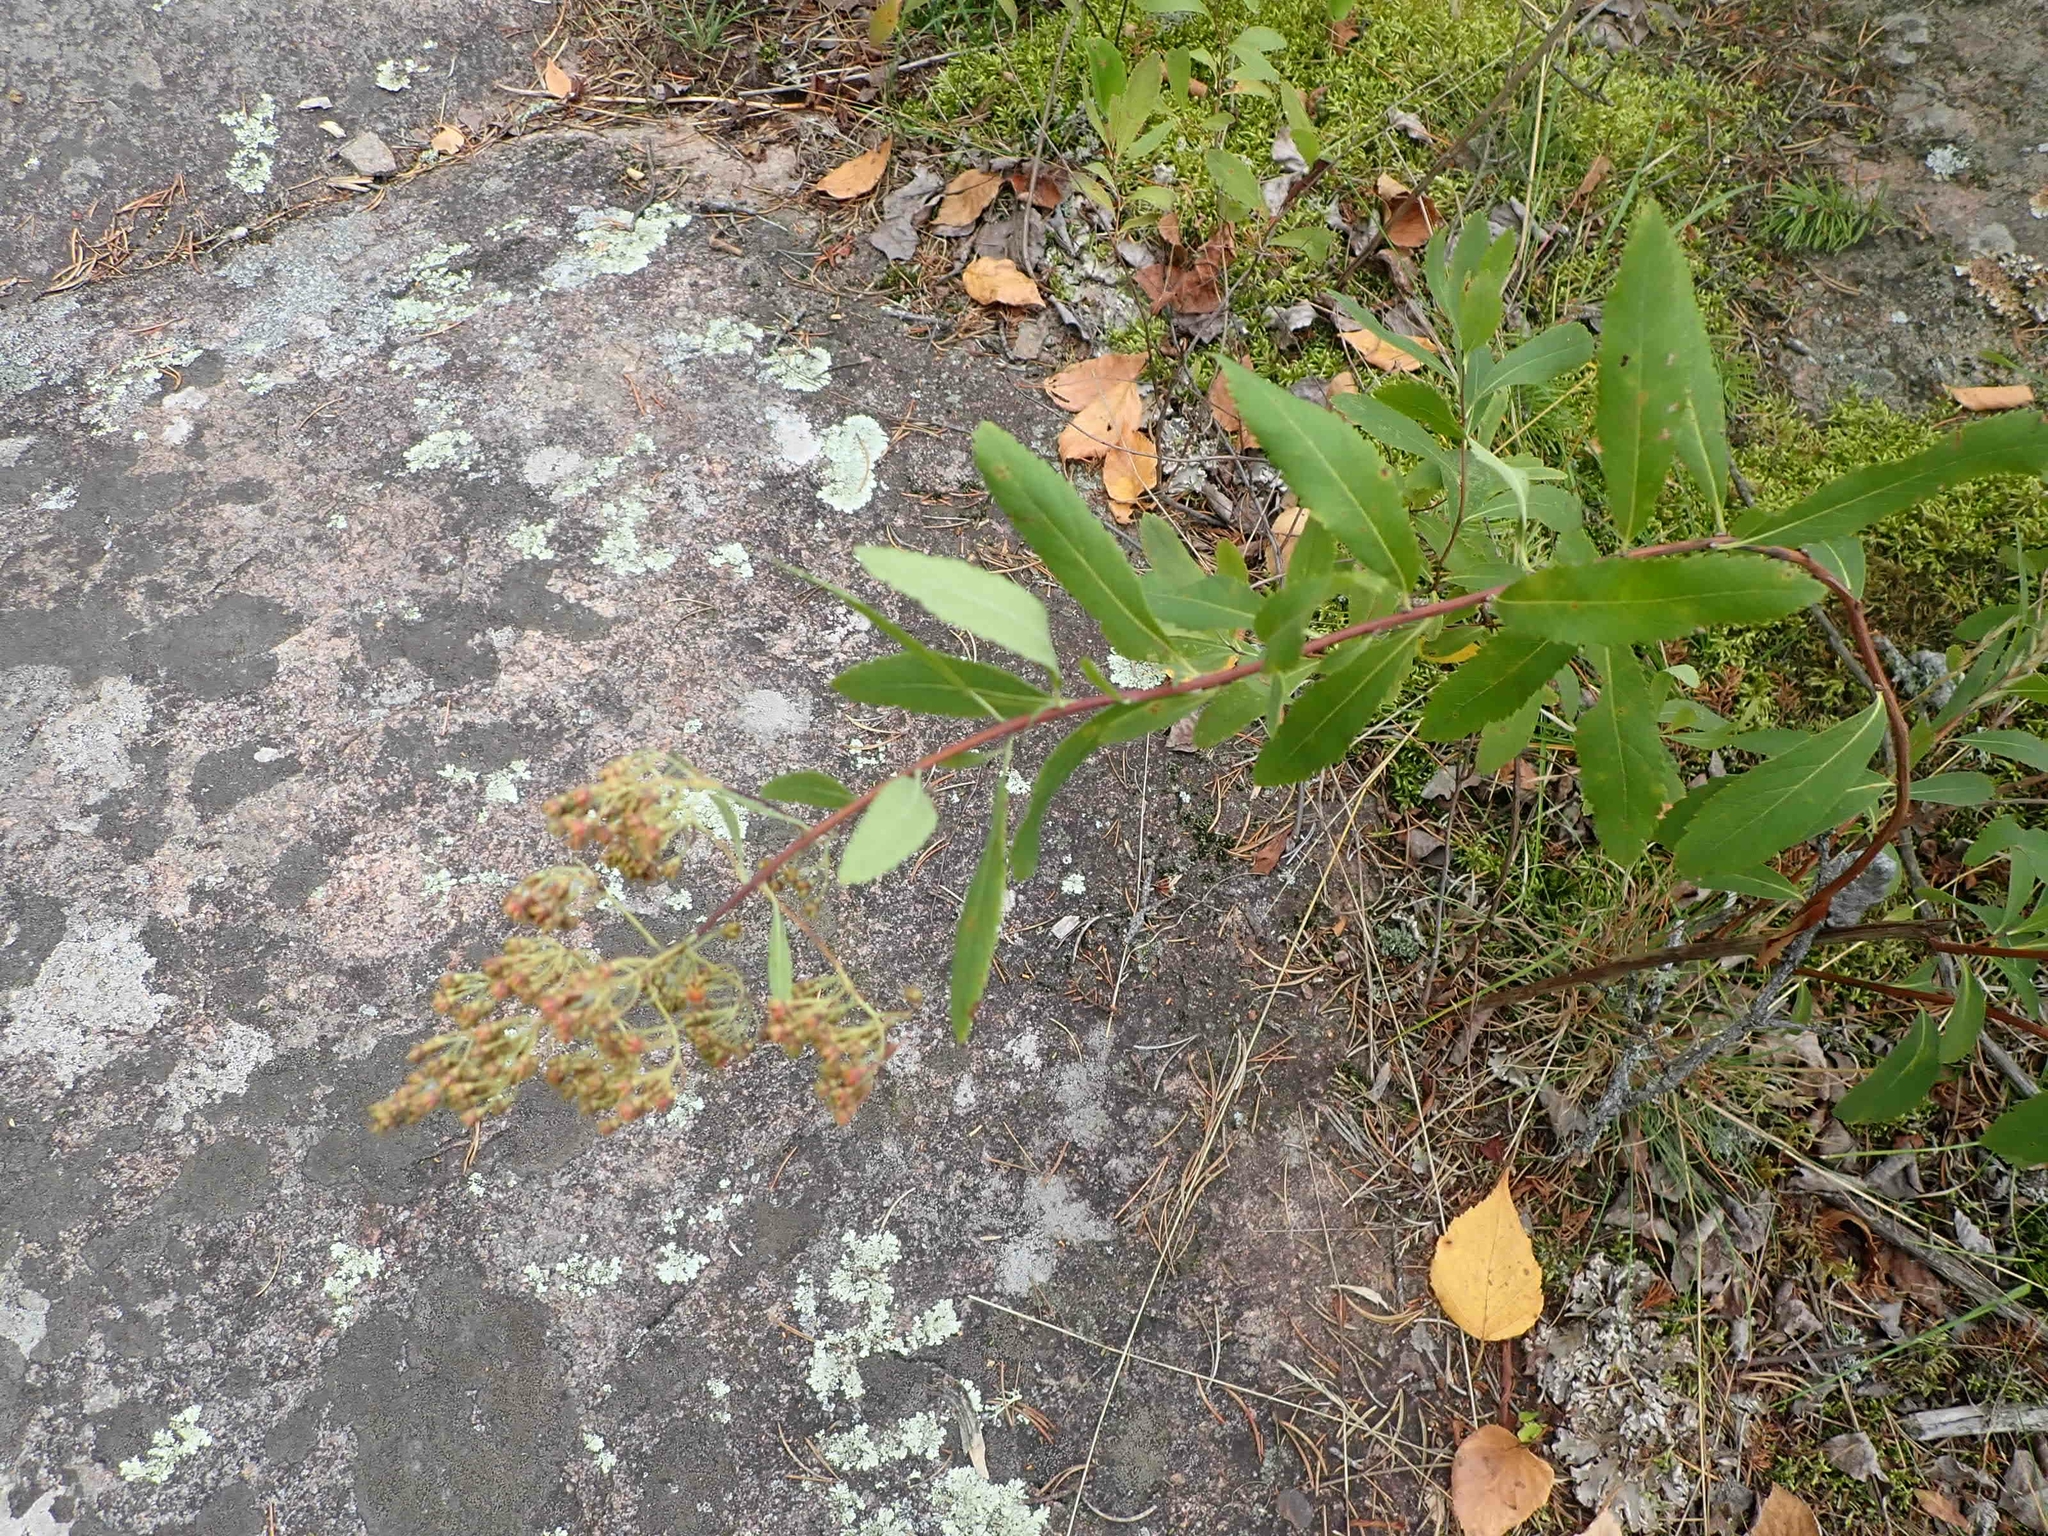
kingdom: Plantae
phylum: Tracheophyta
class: Magnoliopsida
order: Rosales
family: Rosaceae
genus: Spiraea
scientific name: Spiraea alba
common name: Pale bridewort
